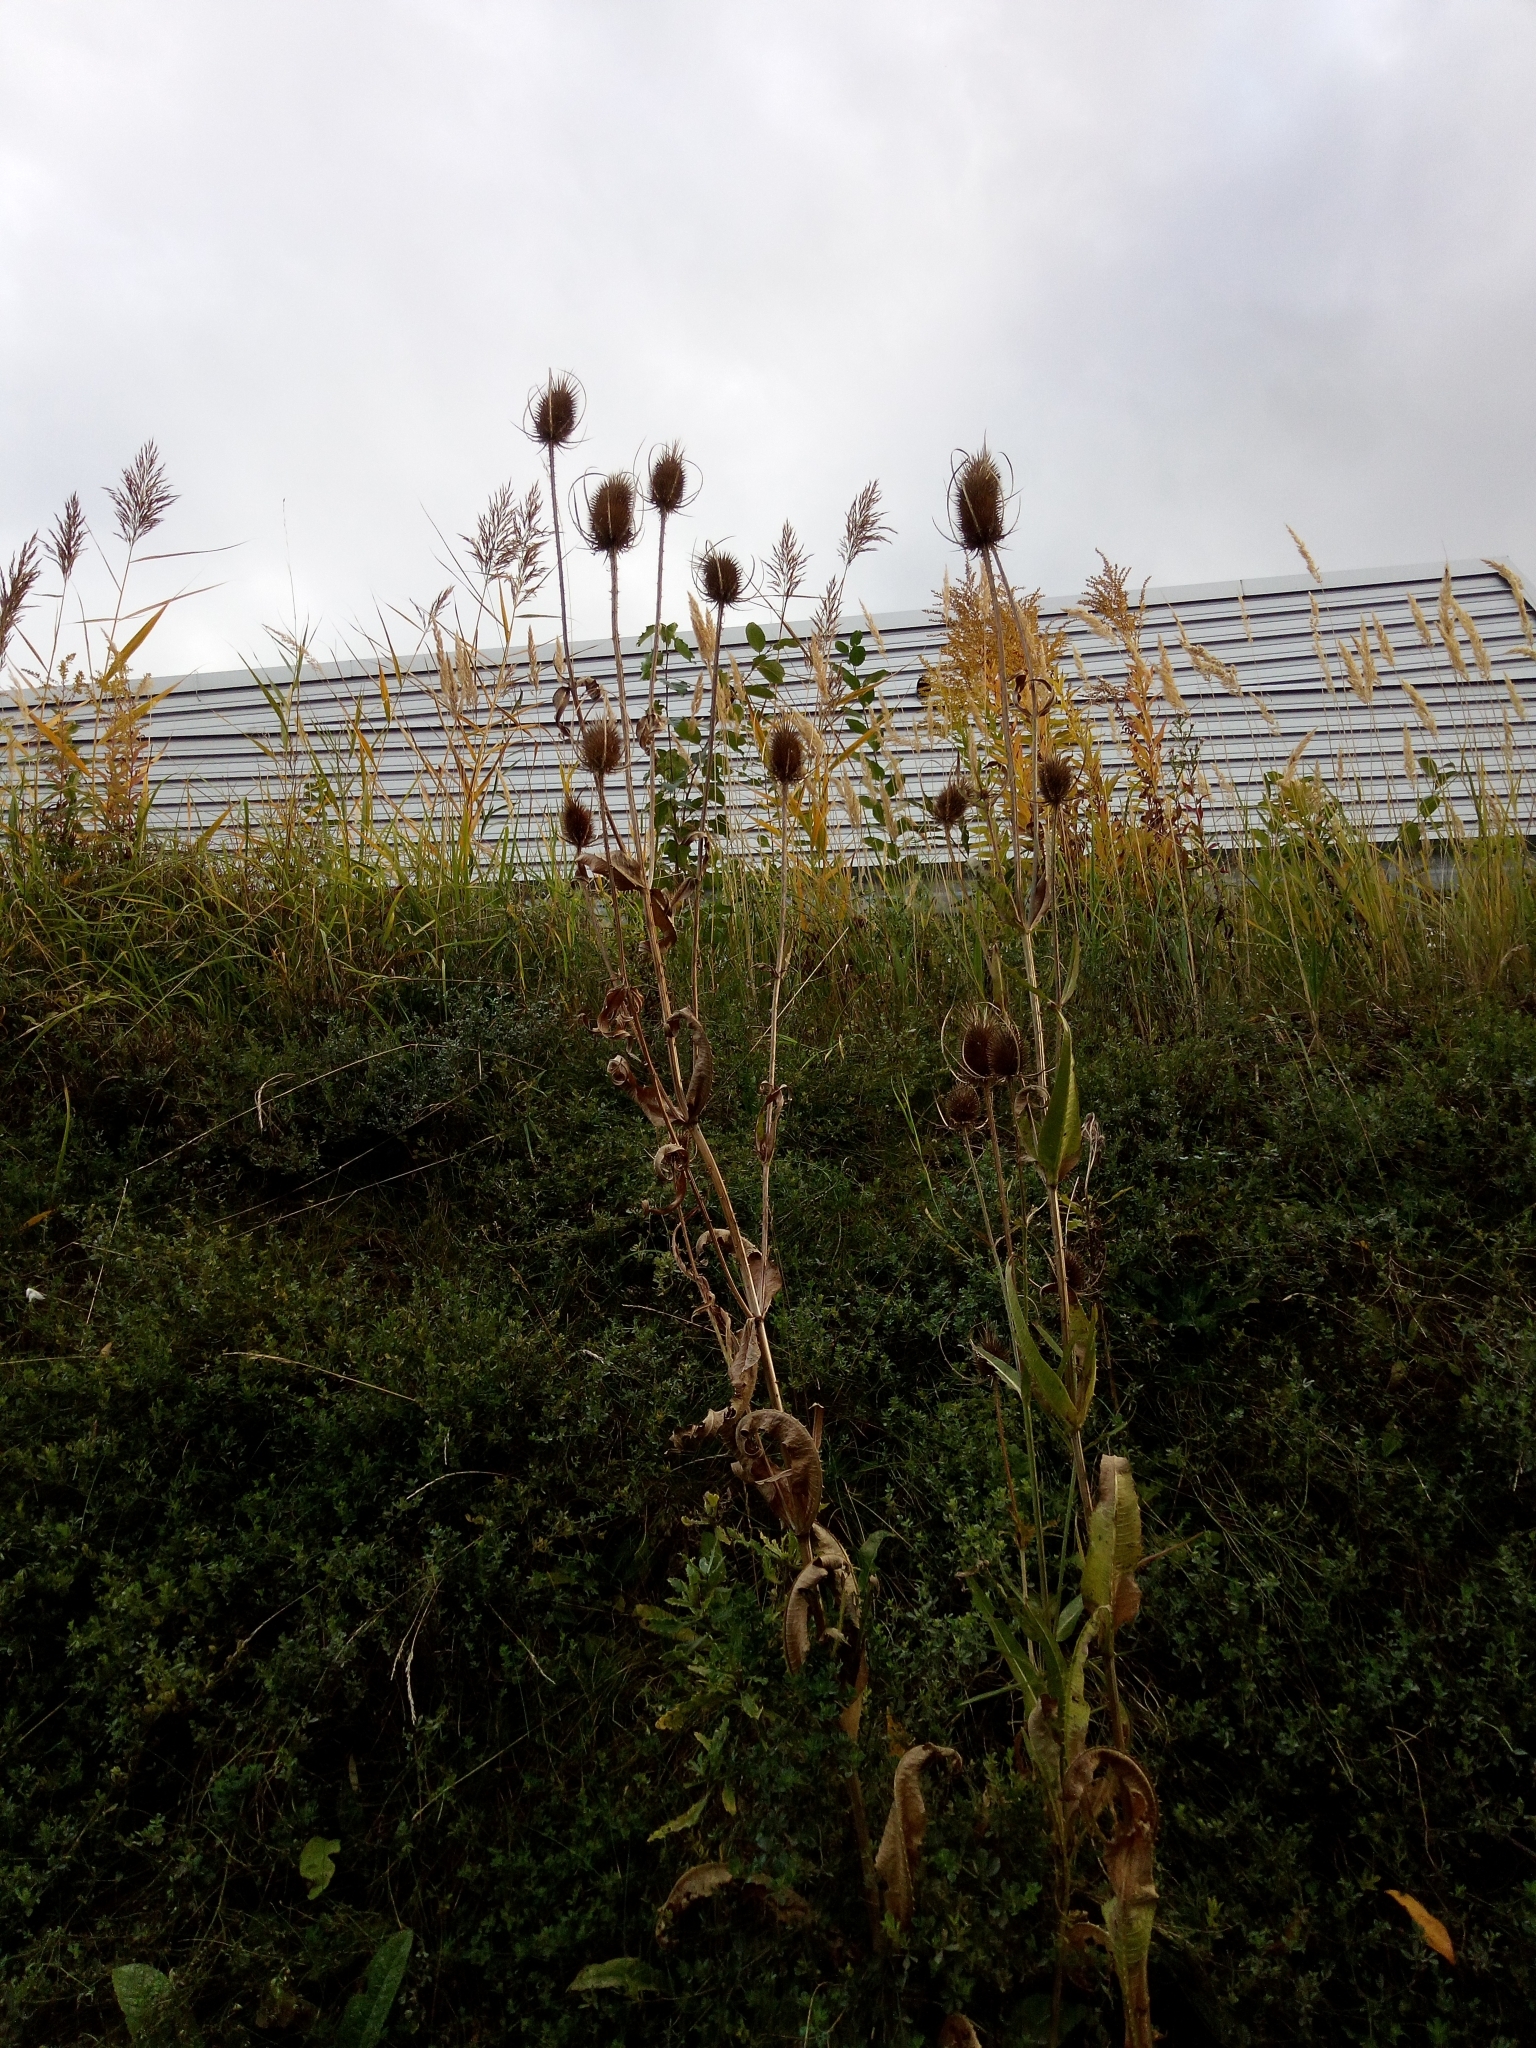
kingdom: Plantae
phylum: Tracheophyta
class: Magnoliopsida
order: Dipsacales
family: Caprifoliaceae
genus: Dipsacus
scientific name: Dipsacus fullonum
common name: Teasel
